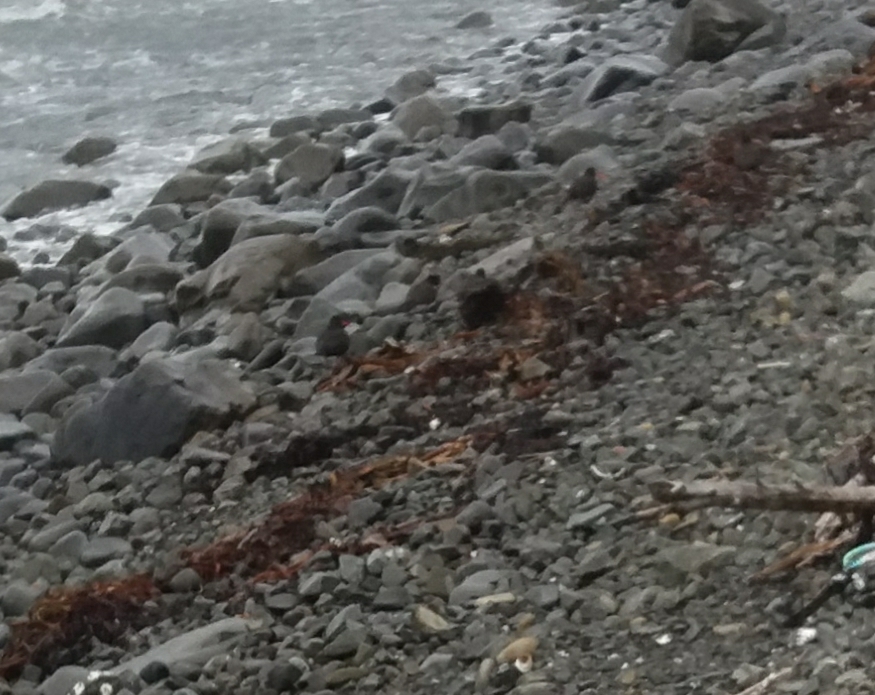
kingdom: Animalia
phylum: Chordata
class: Aves
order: Charadriiformes
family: Haematopodidae
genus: Haematopus
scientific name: Haematopus unicolor
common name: Variable oystercatcher
